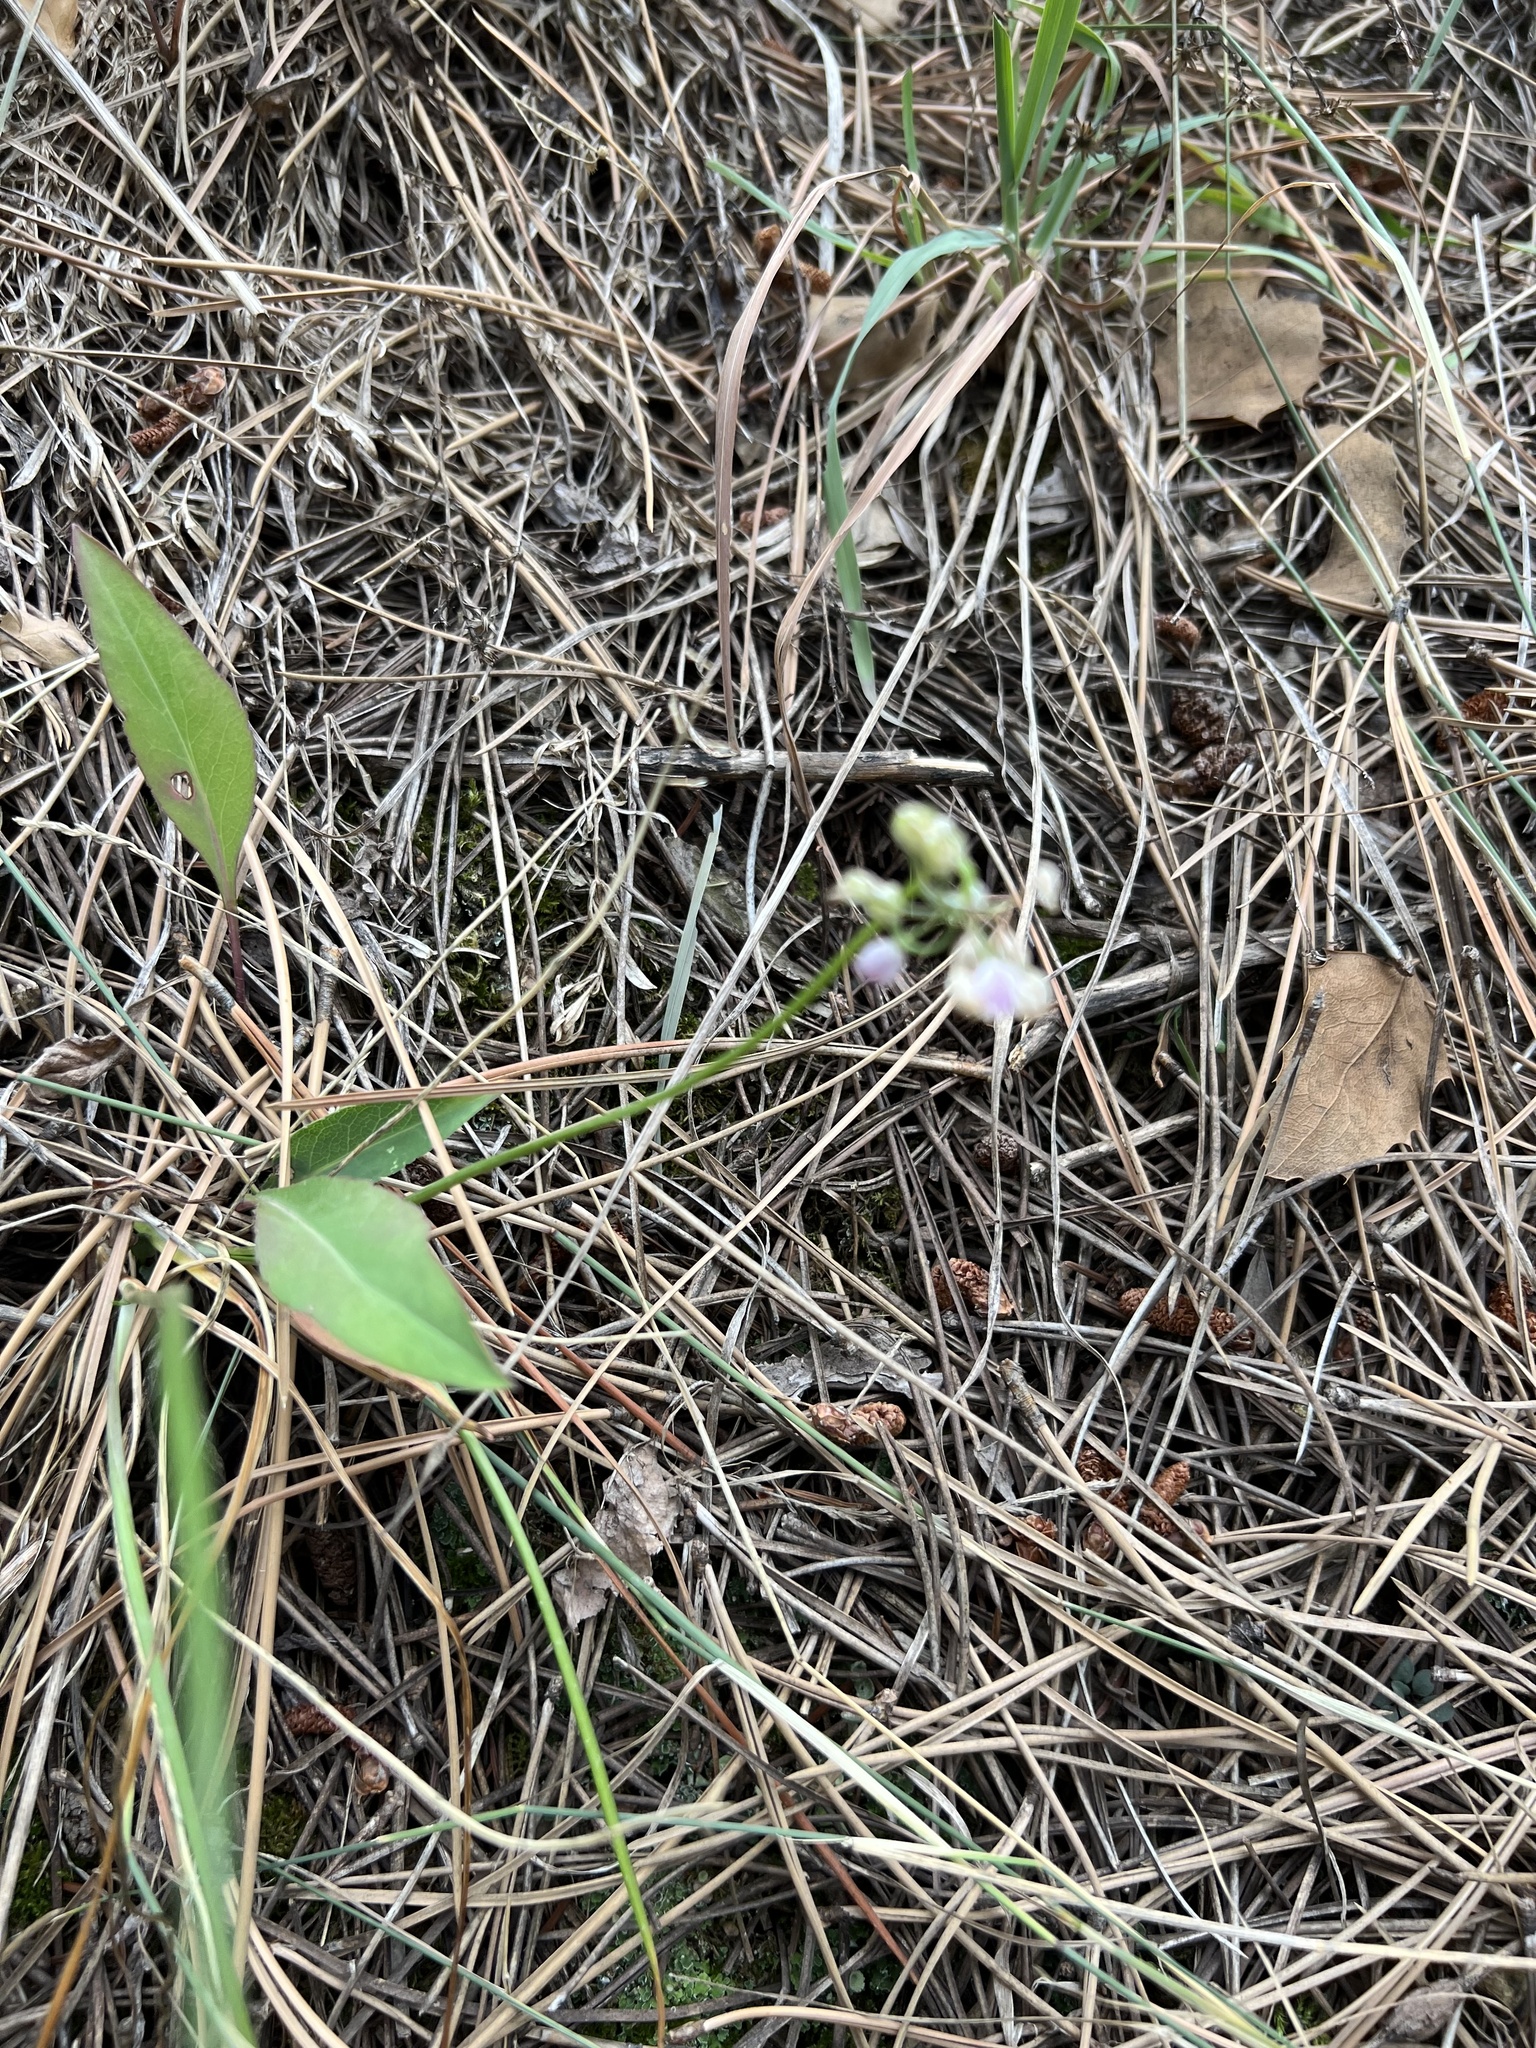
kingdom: Plantae
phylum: Tracheophyta
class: Liliopsida
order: Asparagales
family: Amaryllidaceae
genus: Allium
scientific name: Allium cernuum
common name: Nodding onion
